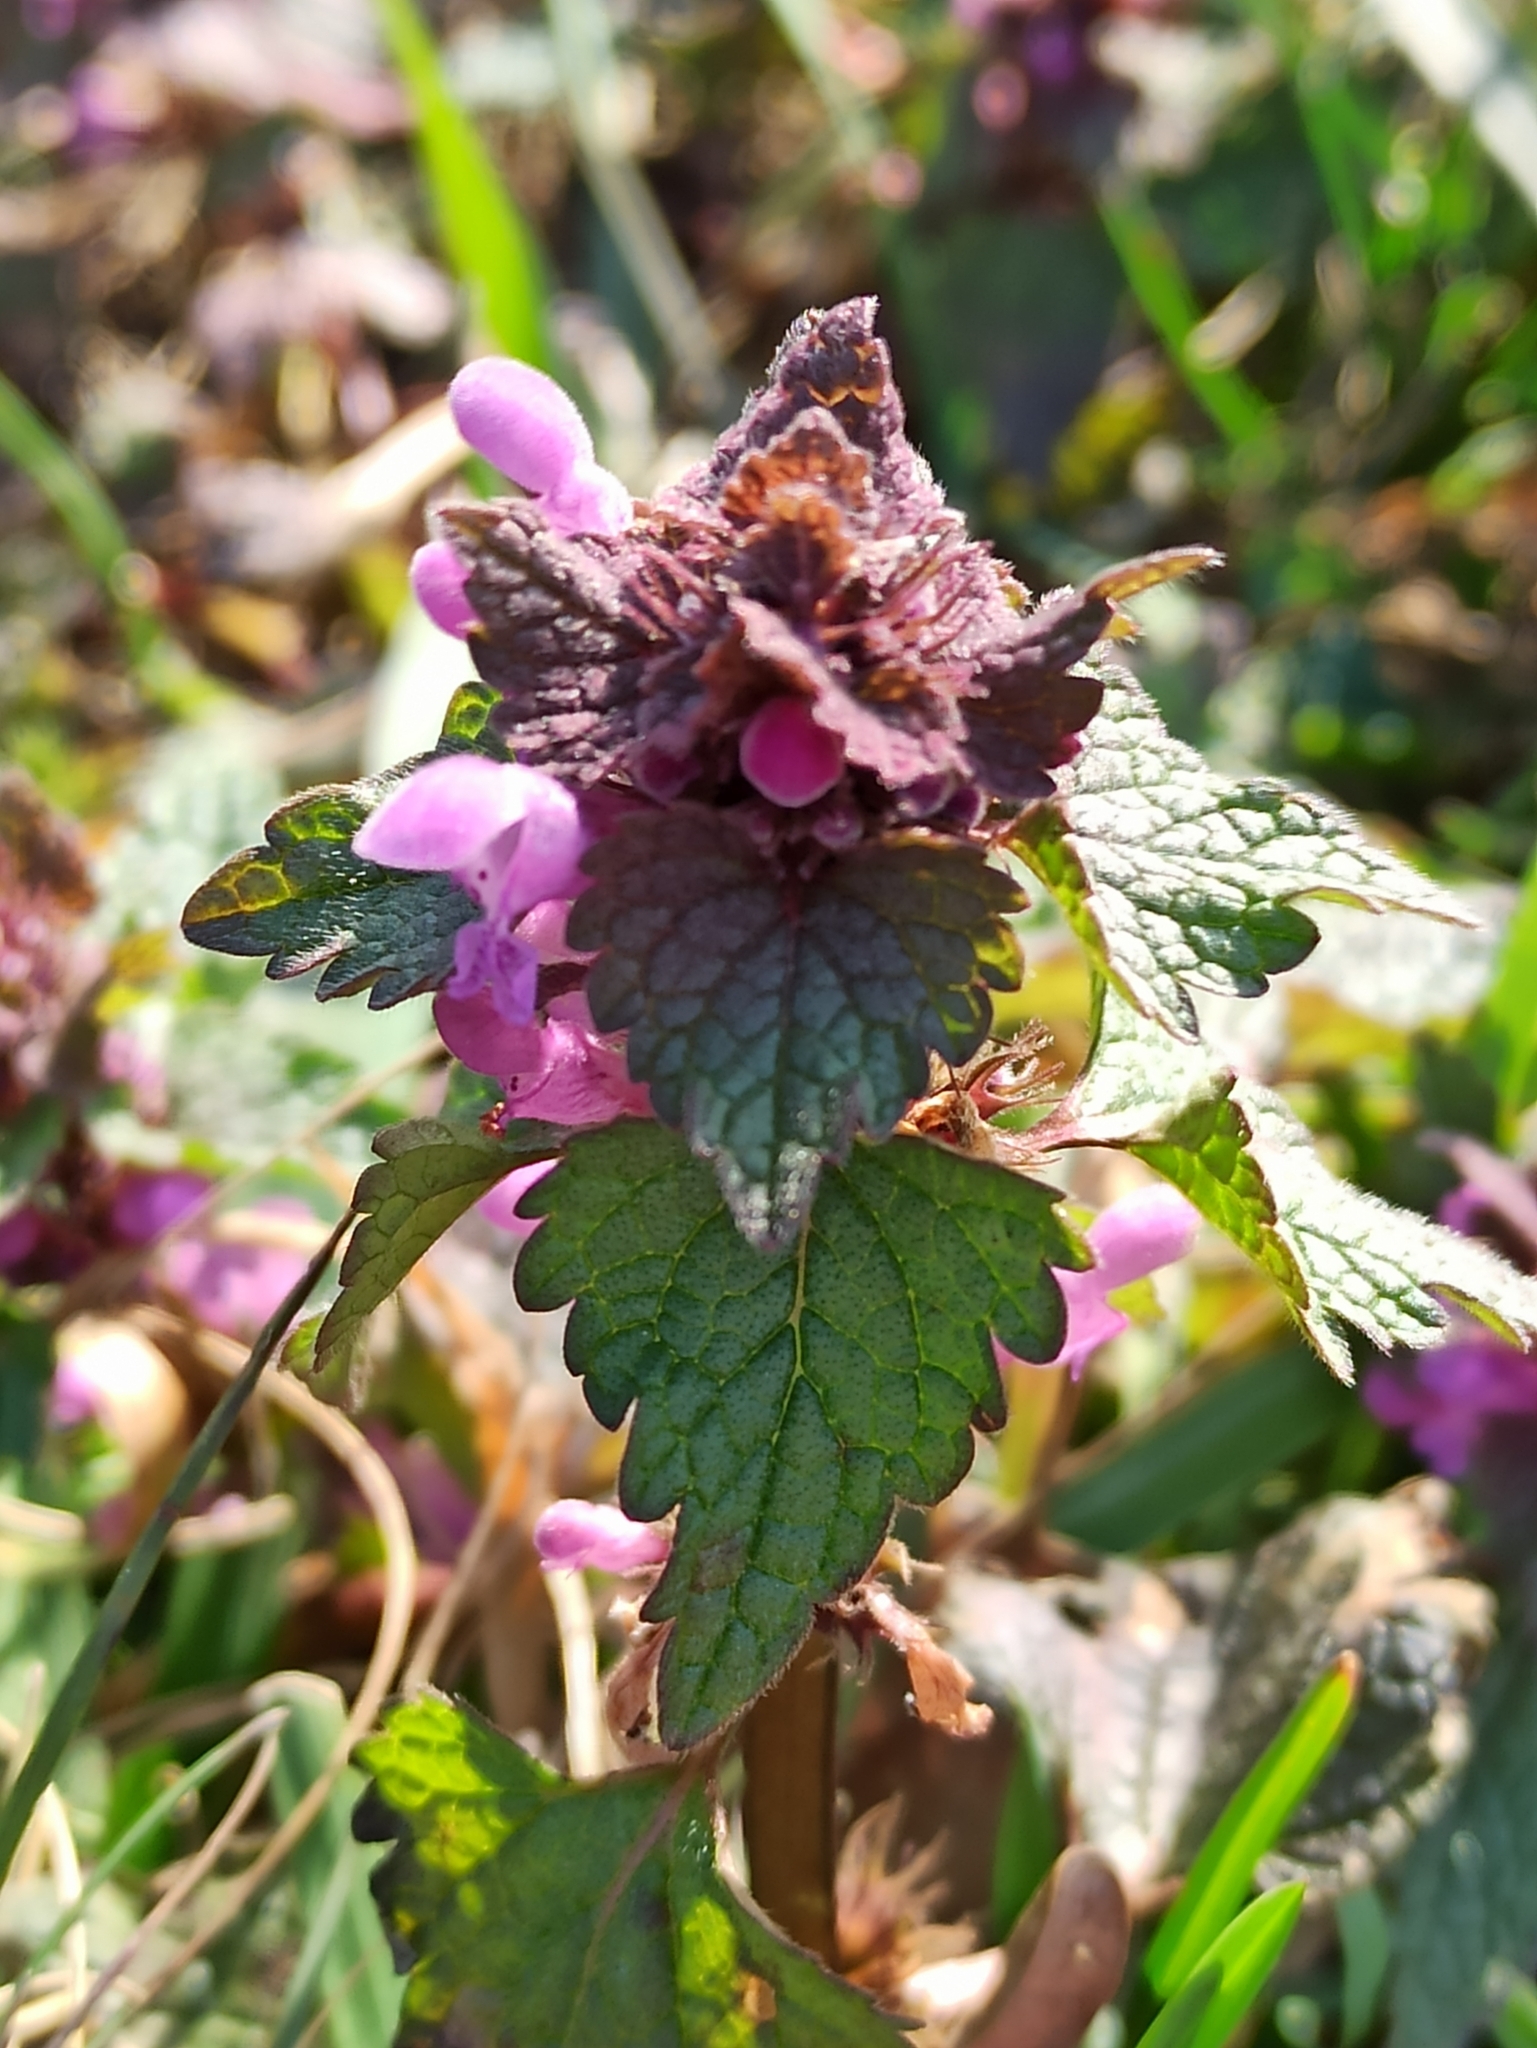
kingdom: Plantae
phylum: Tracheophyta
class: Magnoliopsida
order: Lamiales
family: Lamiaceae
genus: Lamium
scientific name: Lamium purpureum
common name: Red dead-nettle
